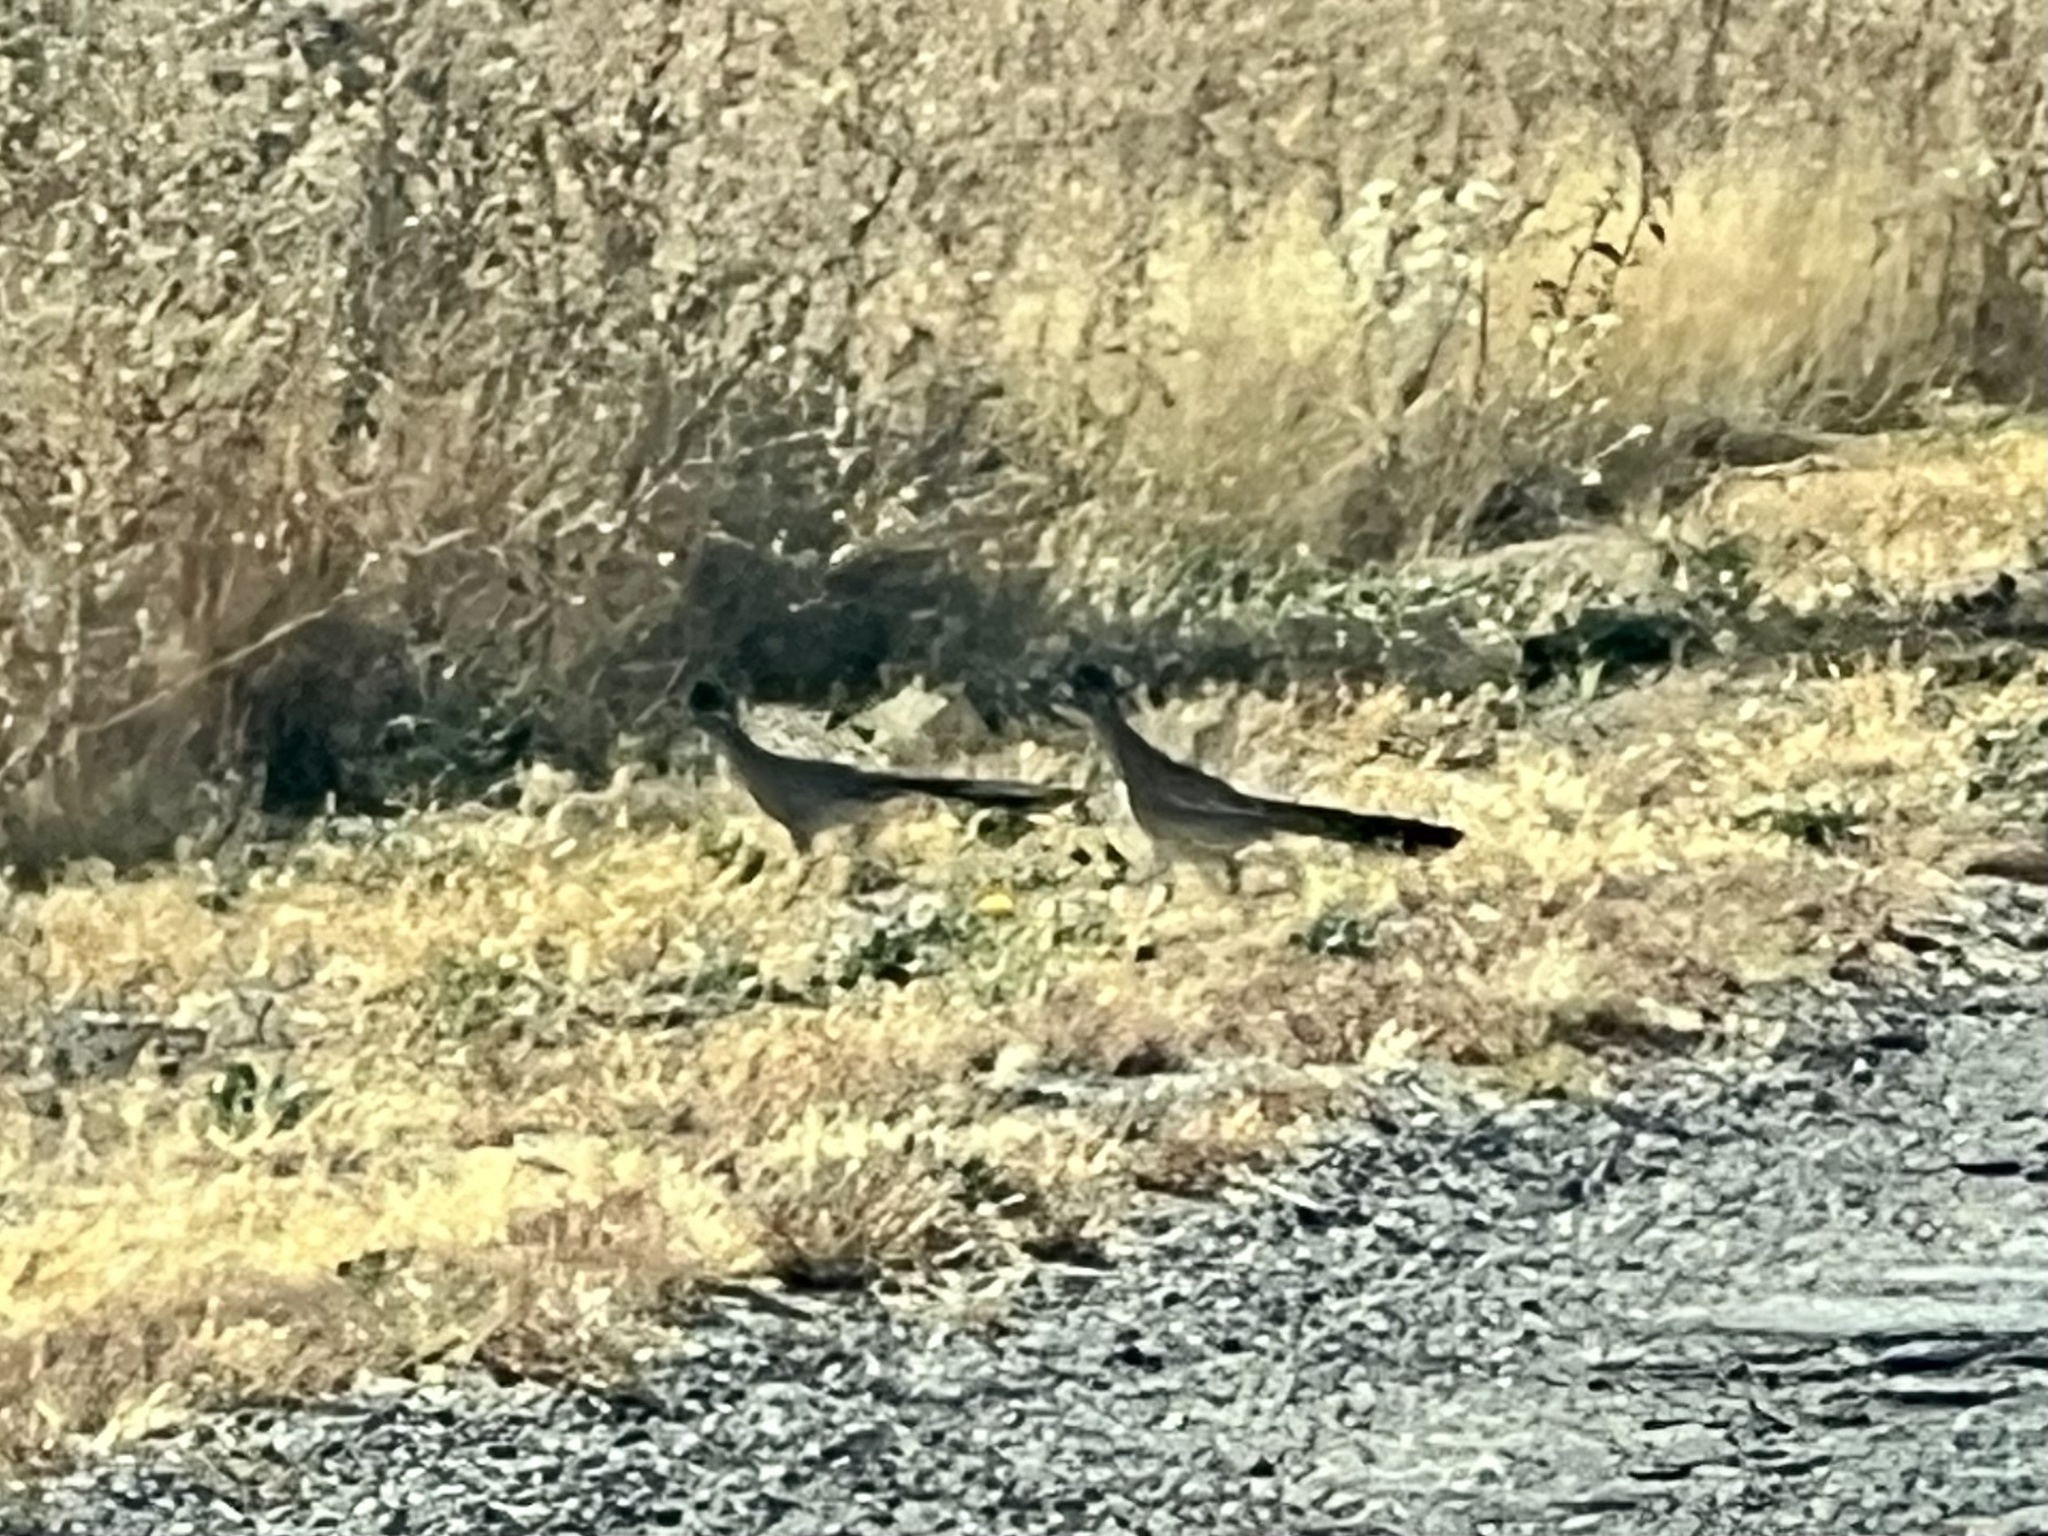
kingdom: Animalia
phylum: Chordata
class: Aves
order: Cuculiformes
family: Cuculidae
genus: Geococcyx
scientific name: Geococcyx californianus
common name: Greater roadrunner
